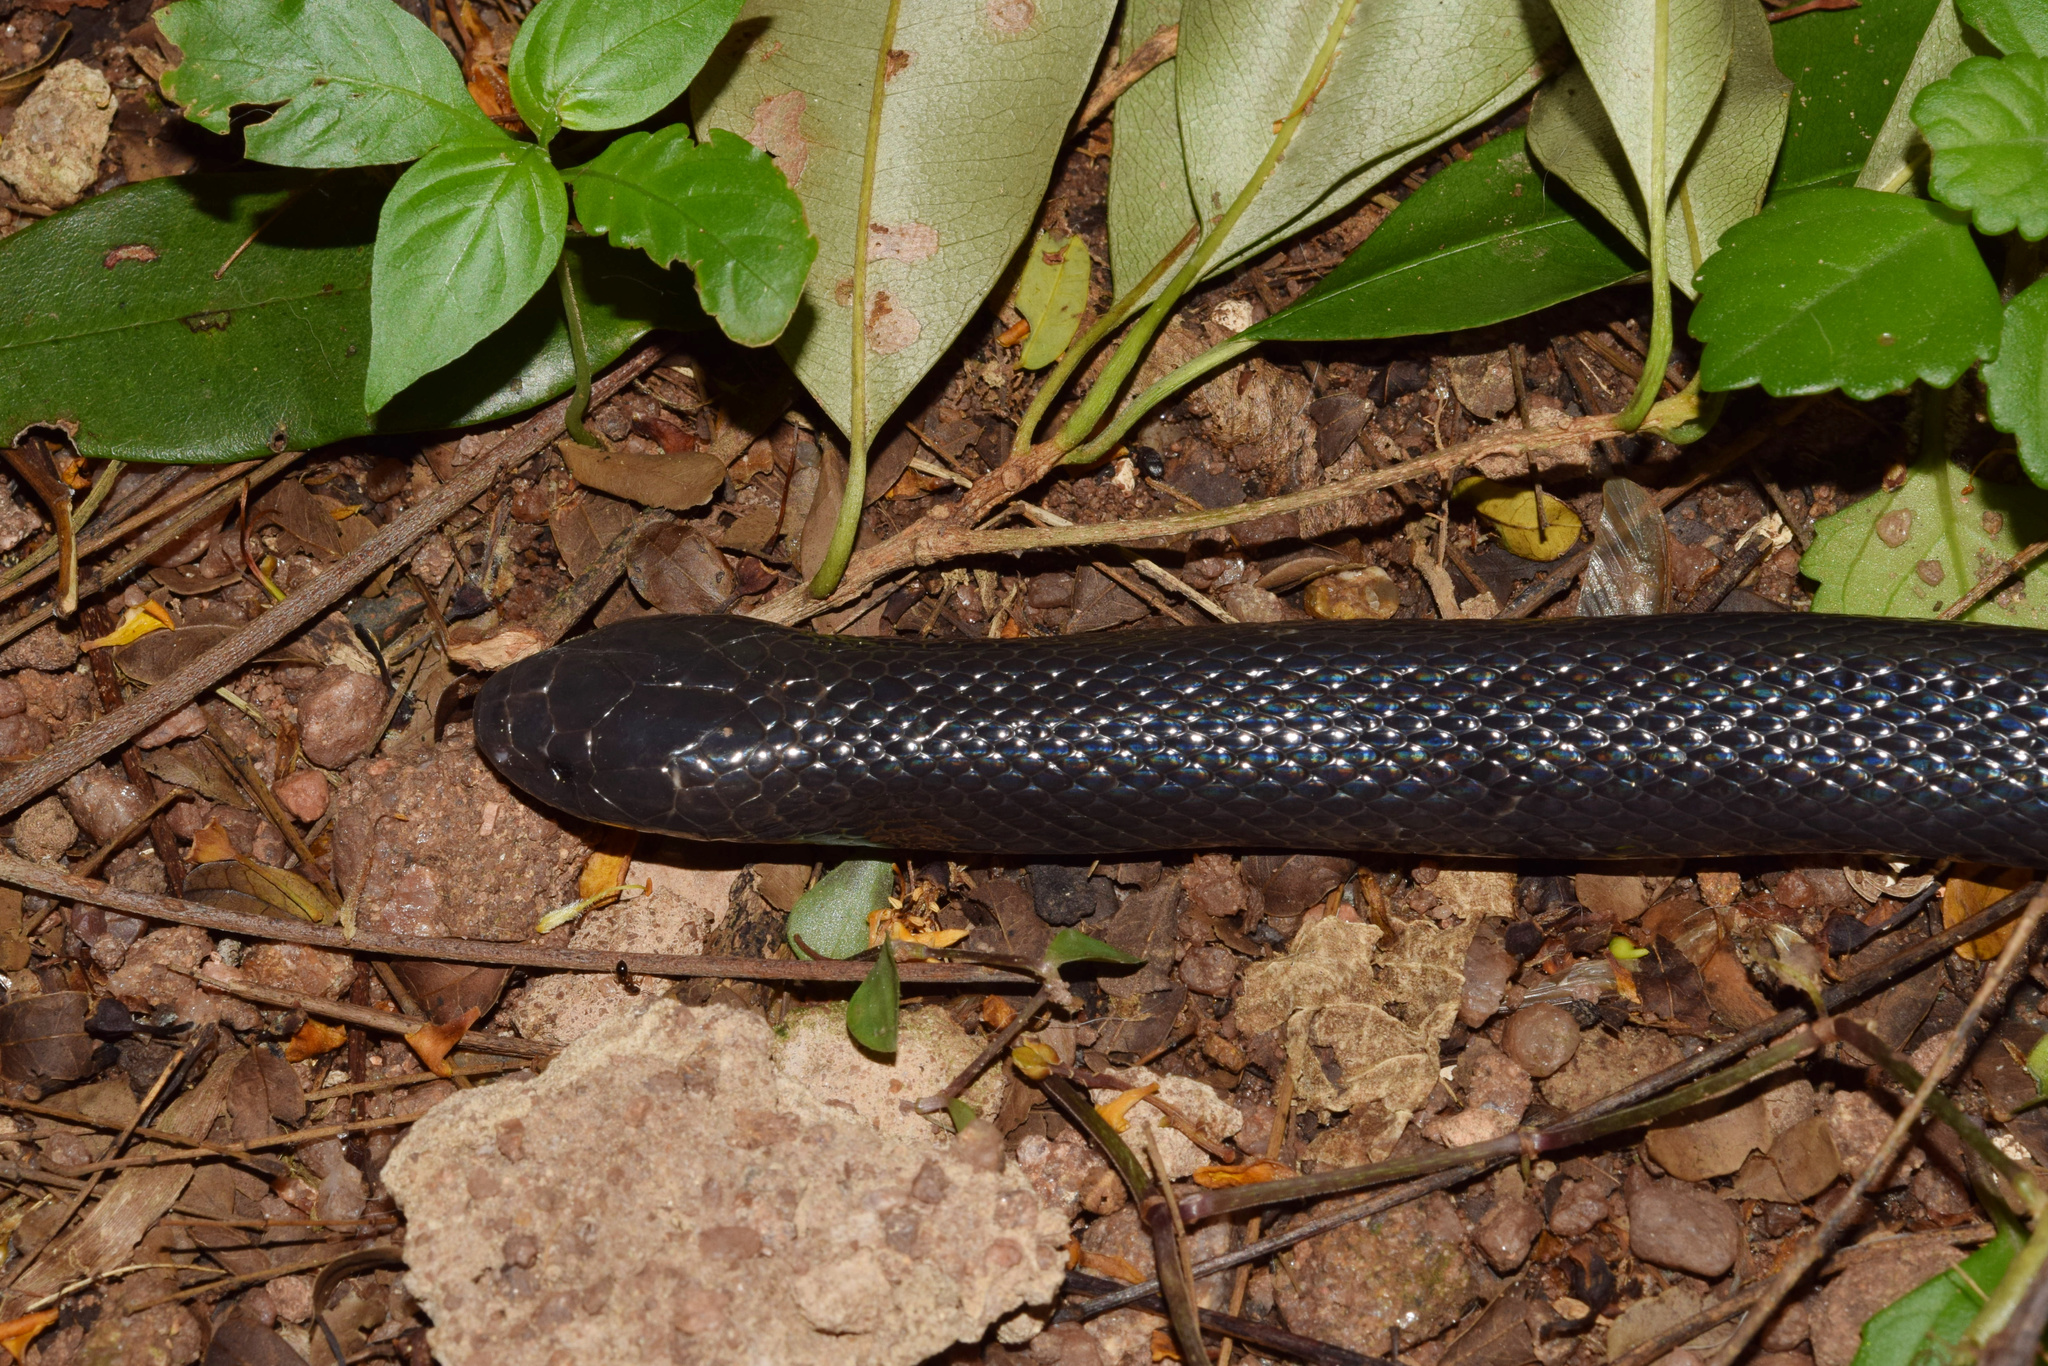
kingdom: Animalia
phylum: Chordata
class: Squamata
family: Atractaspididae
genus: Macrelaps
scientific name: Macrelaps microlepidotus
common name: Kwazulu-natal black snake
